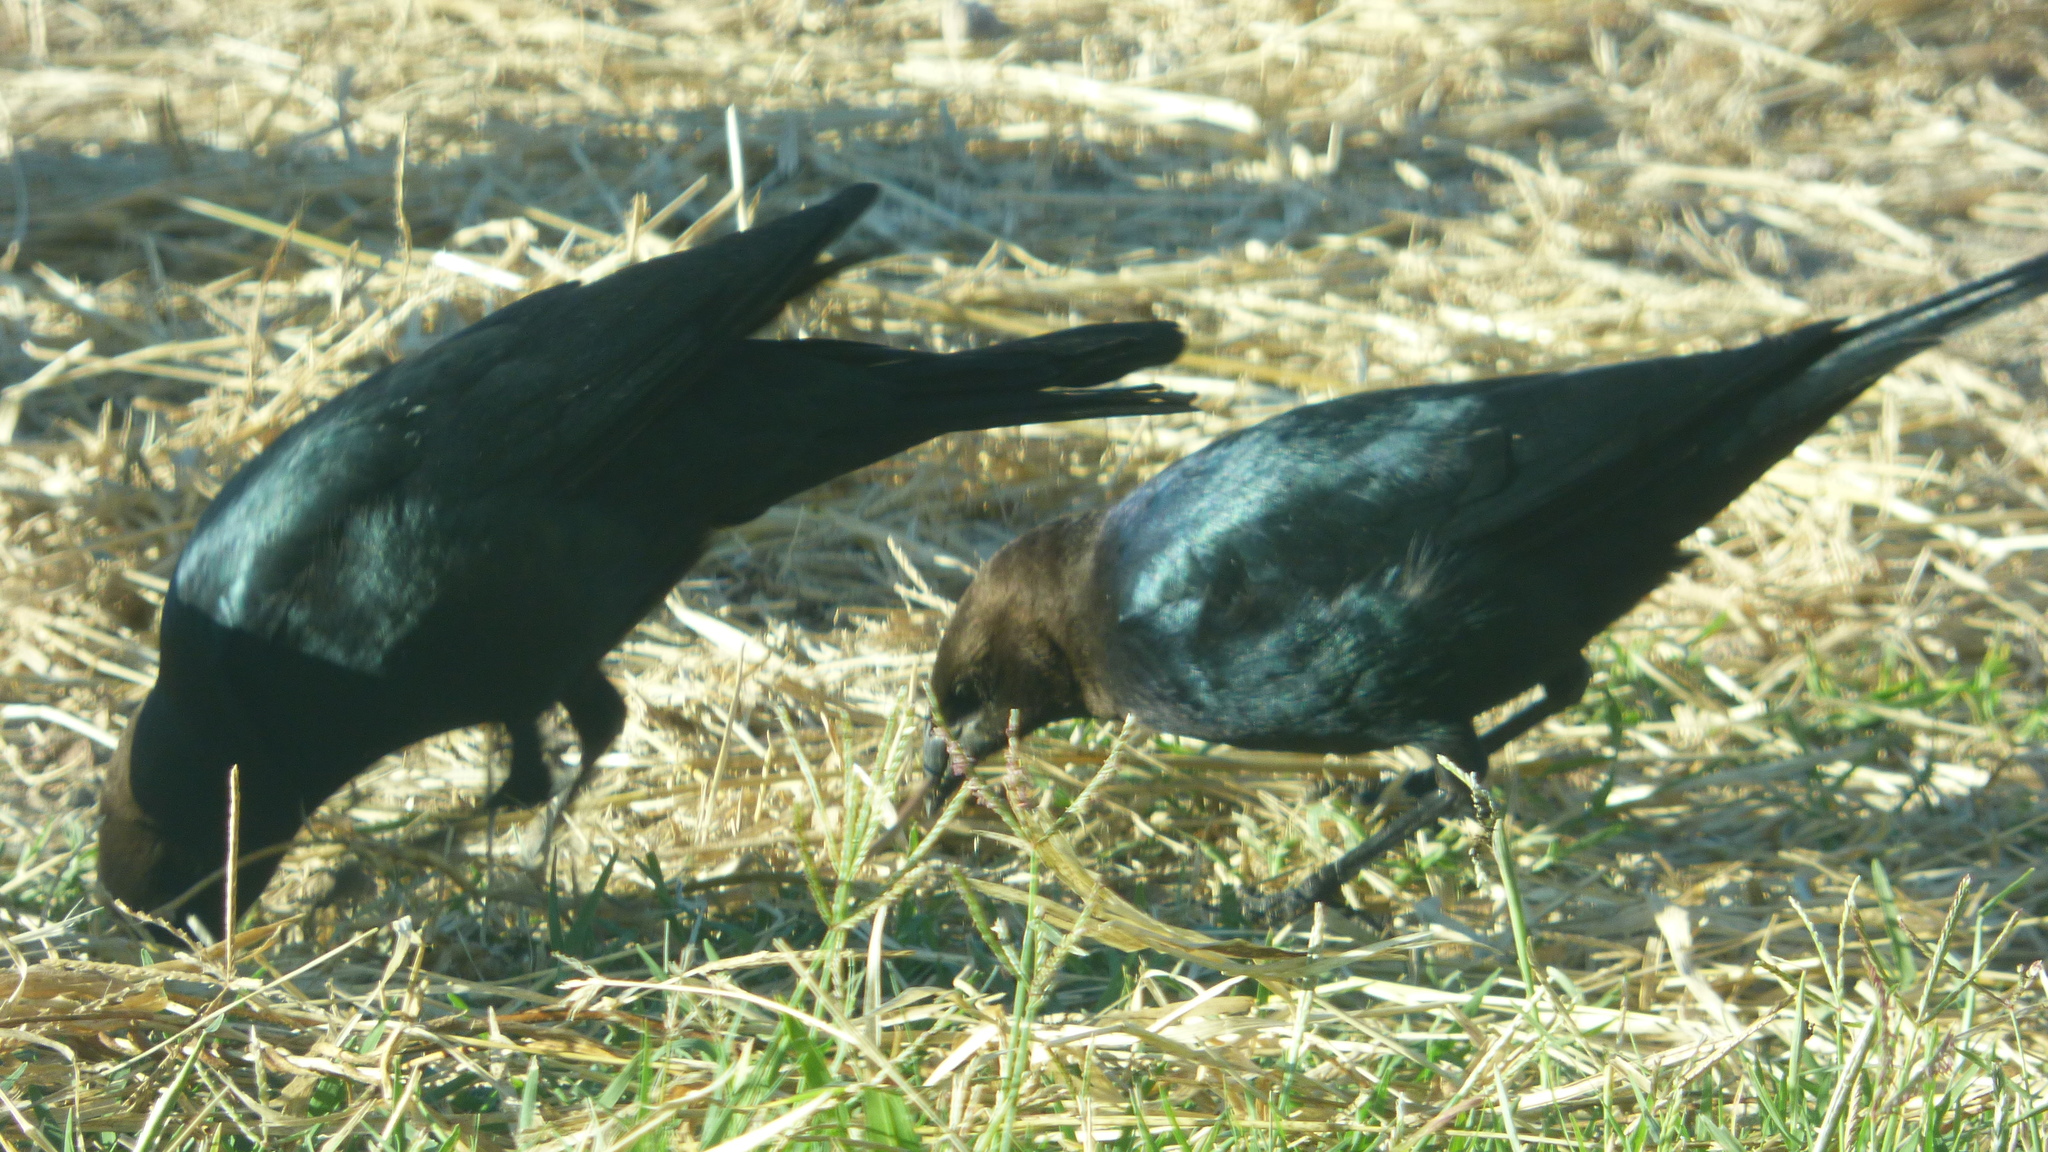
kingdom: Animalia
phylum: Chordata
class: Aves
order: Passeriformes
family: Icteridae
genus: Molothrus
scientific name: Molothrus ater
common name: Brown-headed cowbird
